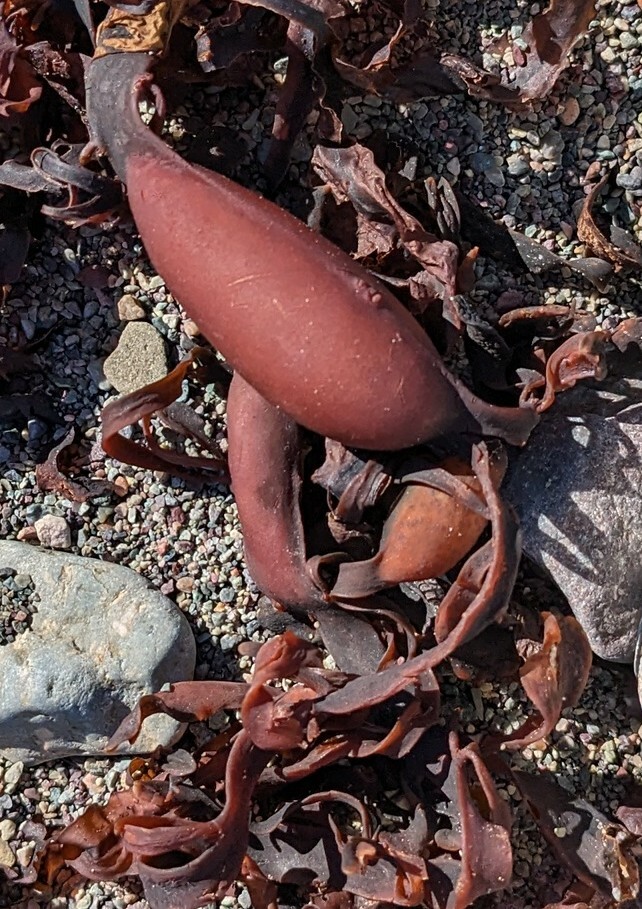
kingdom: Chromista
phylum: Ochrophyta
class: Phaeophyceae
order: Fucales
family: Fucaceae
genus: Ascophyllum
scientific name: Ascophyllum nodosum
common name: Knotted wrack
